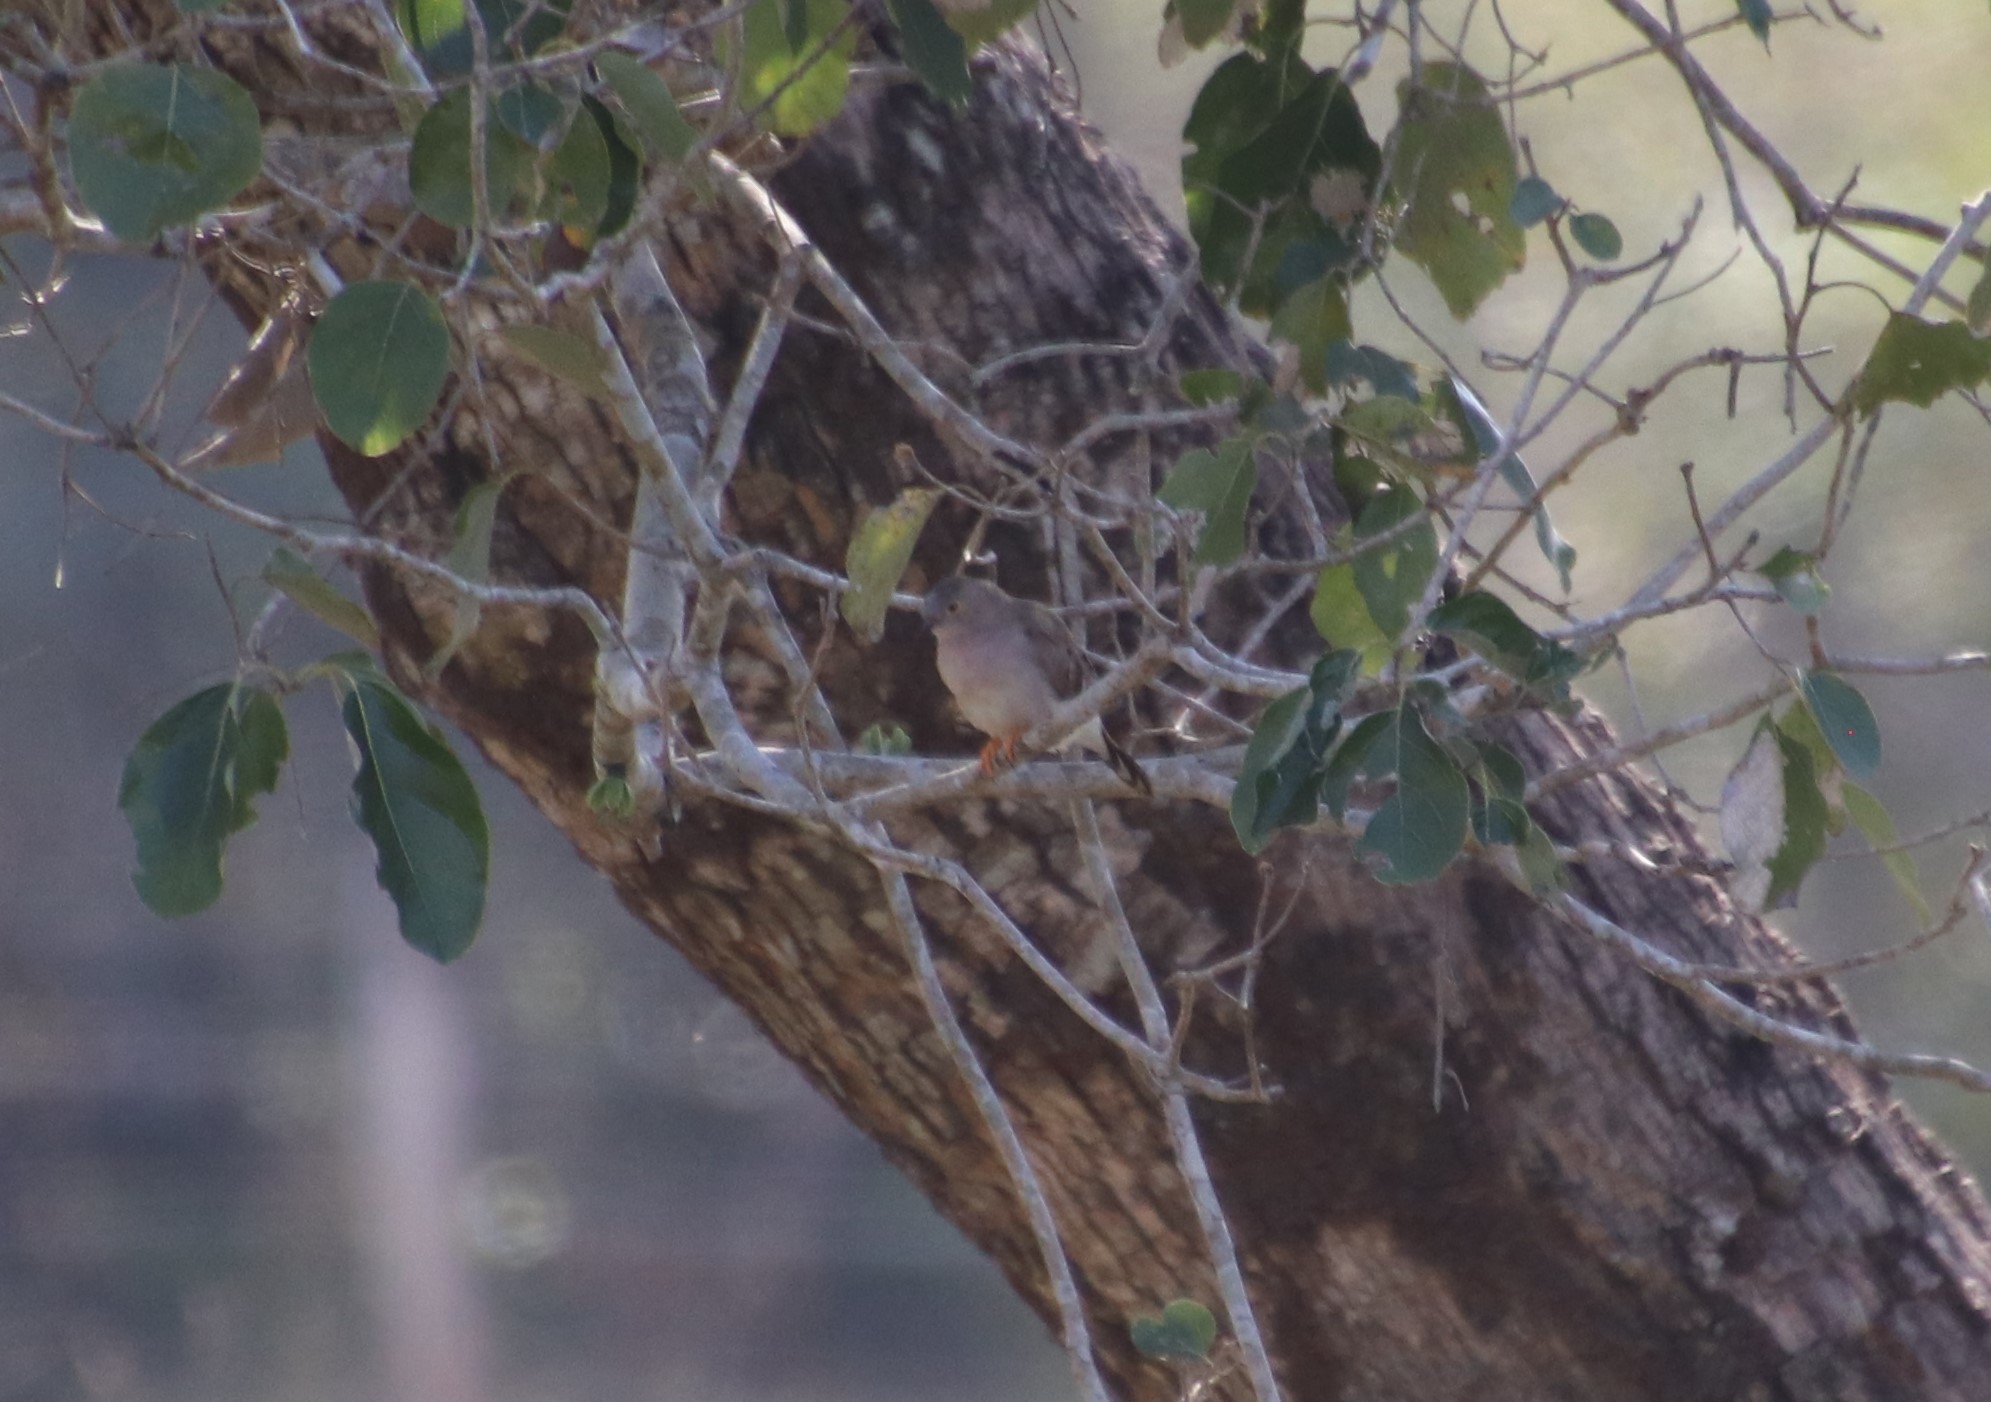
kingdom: Animalia
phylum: Chordata
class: Aves
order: Columbiformes
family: Columbidae
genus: Uropelia
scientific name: Uropelia campestris
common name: Long-tailed ground dove
